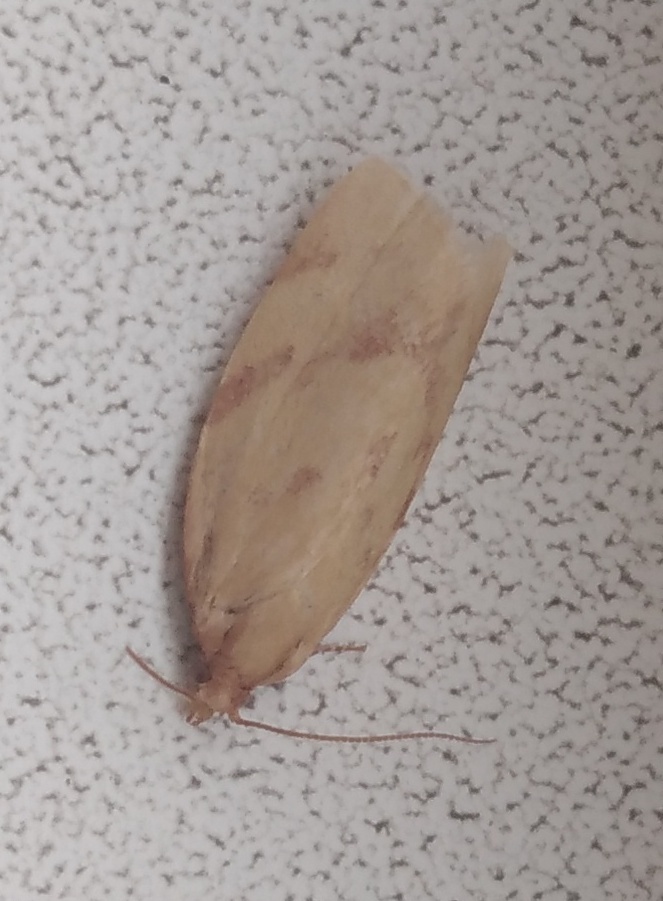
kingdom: Animalia
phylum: Arthropoda
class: Insecta
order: Lepidoptera
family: Tortricidae
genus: Clepsis
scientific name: Clepsis pallidana
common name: Sheep's-bit conch
